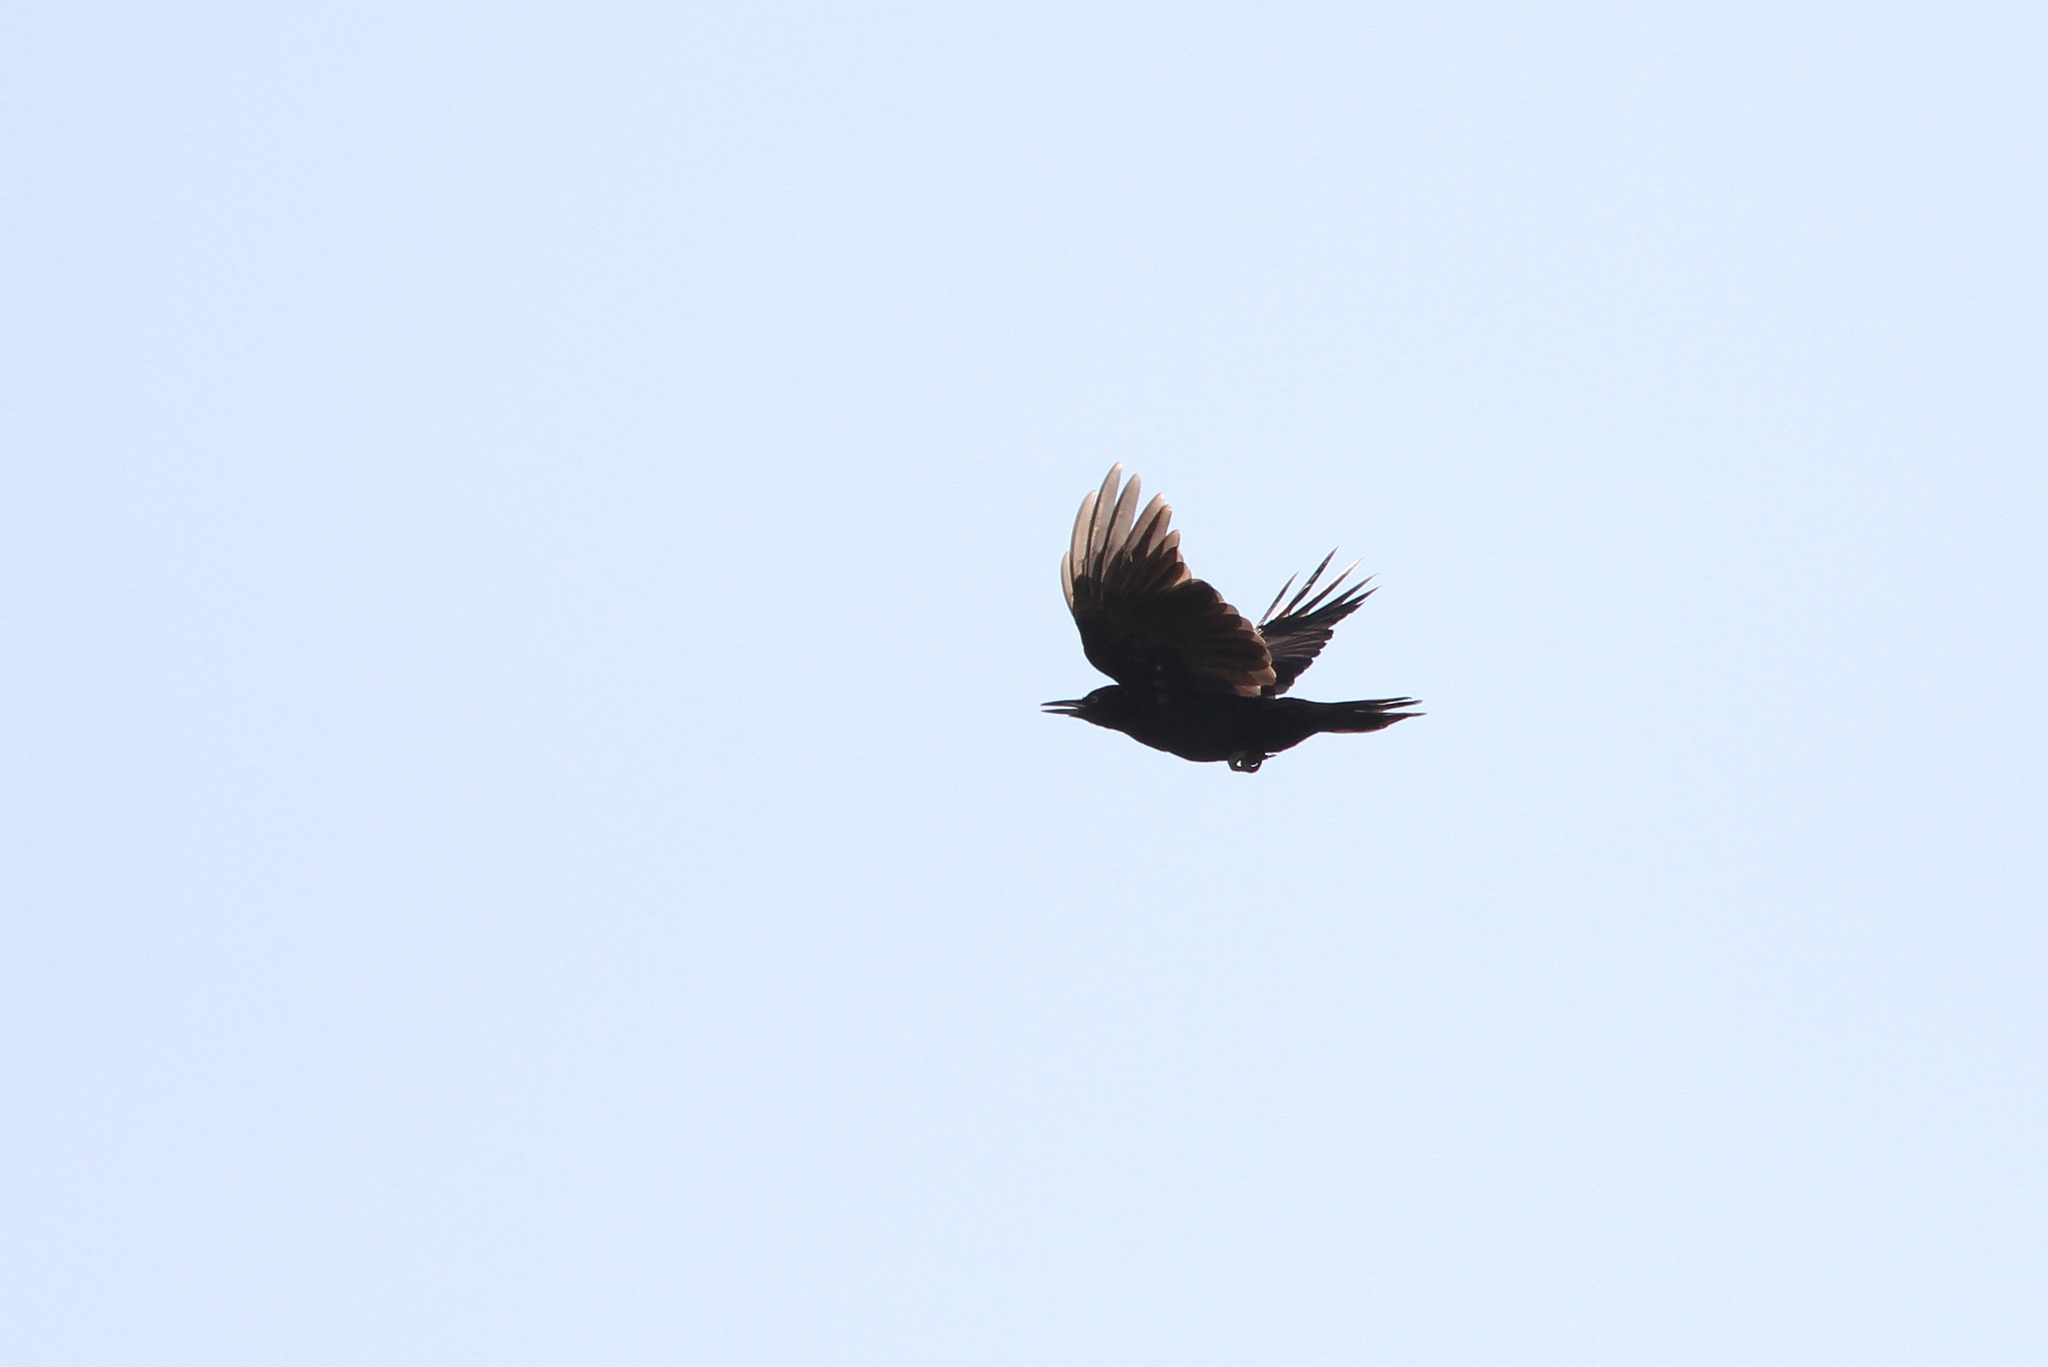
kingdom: Animalia
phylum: Chordata
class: Aves
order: Piciformes
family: Picidae
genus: Dryocopus
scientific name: Dryocopus martius
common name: Black woodpecker
